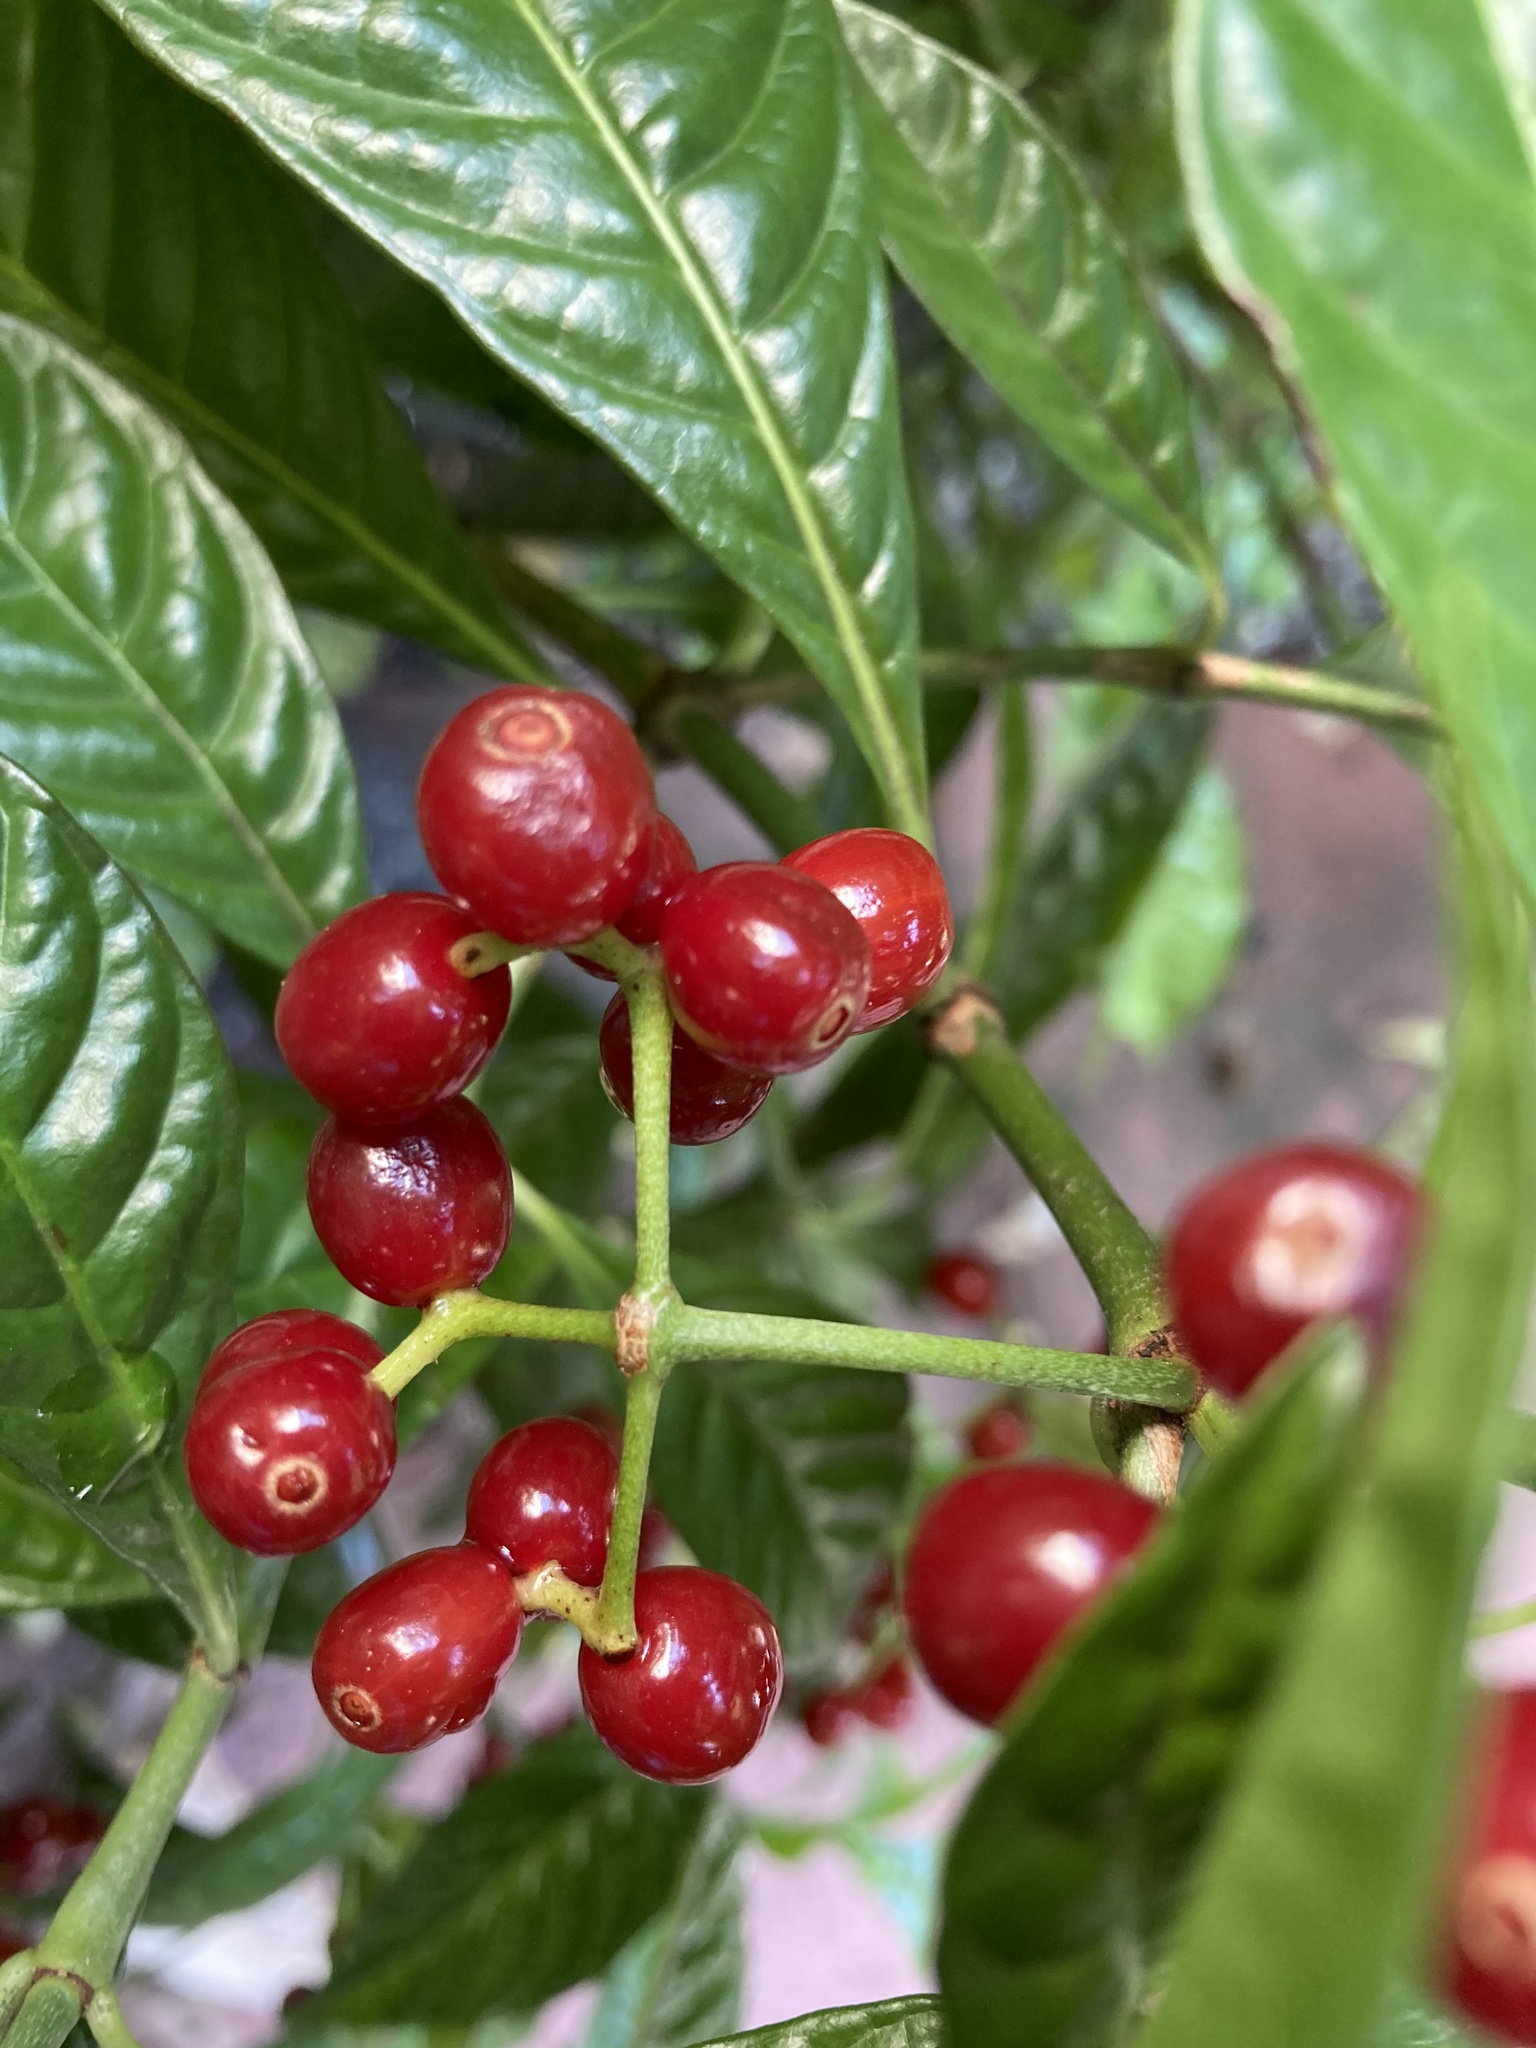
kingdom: Plantae
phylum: Tracheophyta
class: Magnoliopsida
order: Gentianales
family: Rubiaceae
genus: Psychotria
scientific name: Psychotria nervosa
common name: Bastard cankerberry
